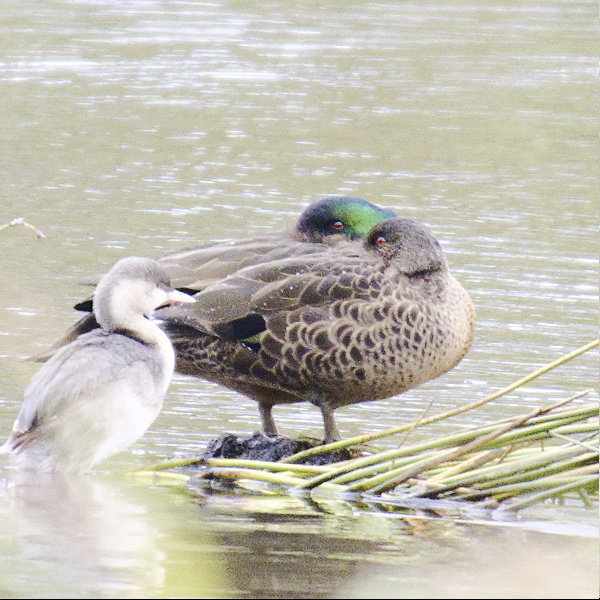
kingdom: Animalia
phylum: Chordata
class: Aves
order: Anseriformes
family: Anatidae
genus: Anas
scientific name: Anas castanea
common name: Chestnut teal
